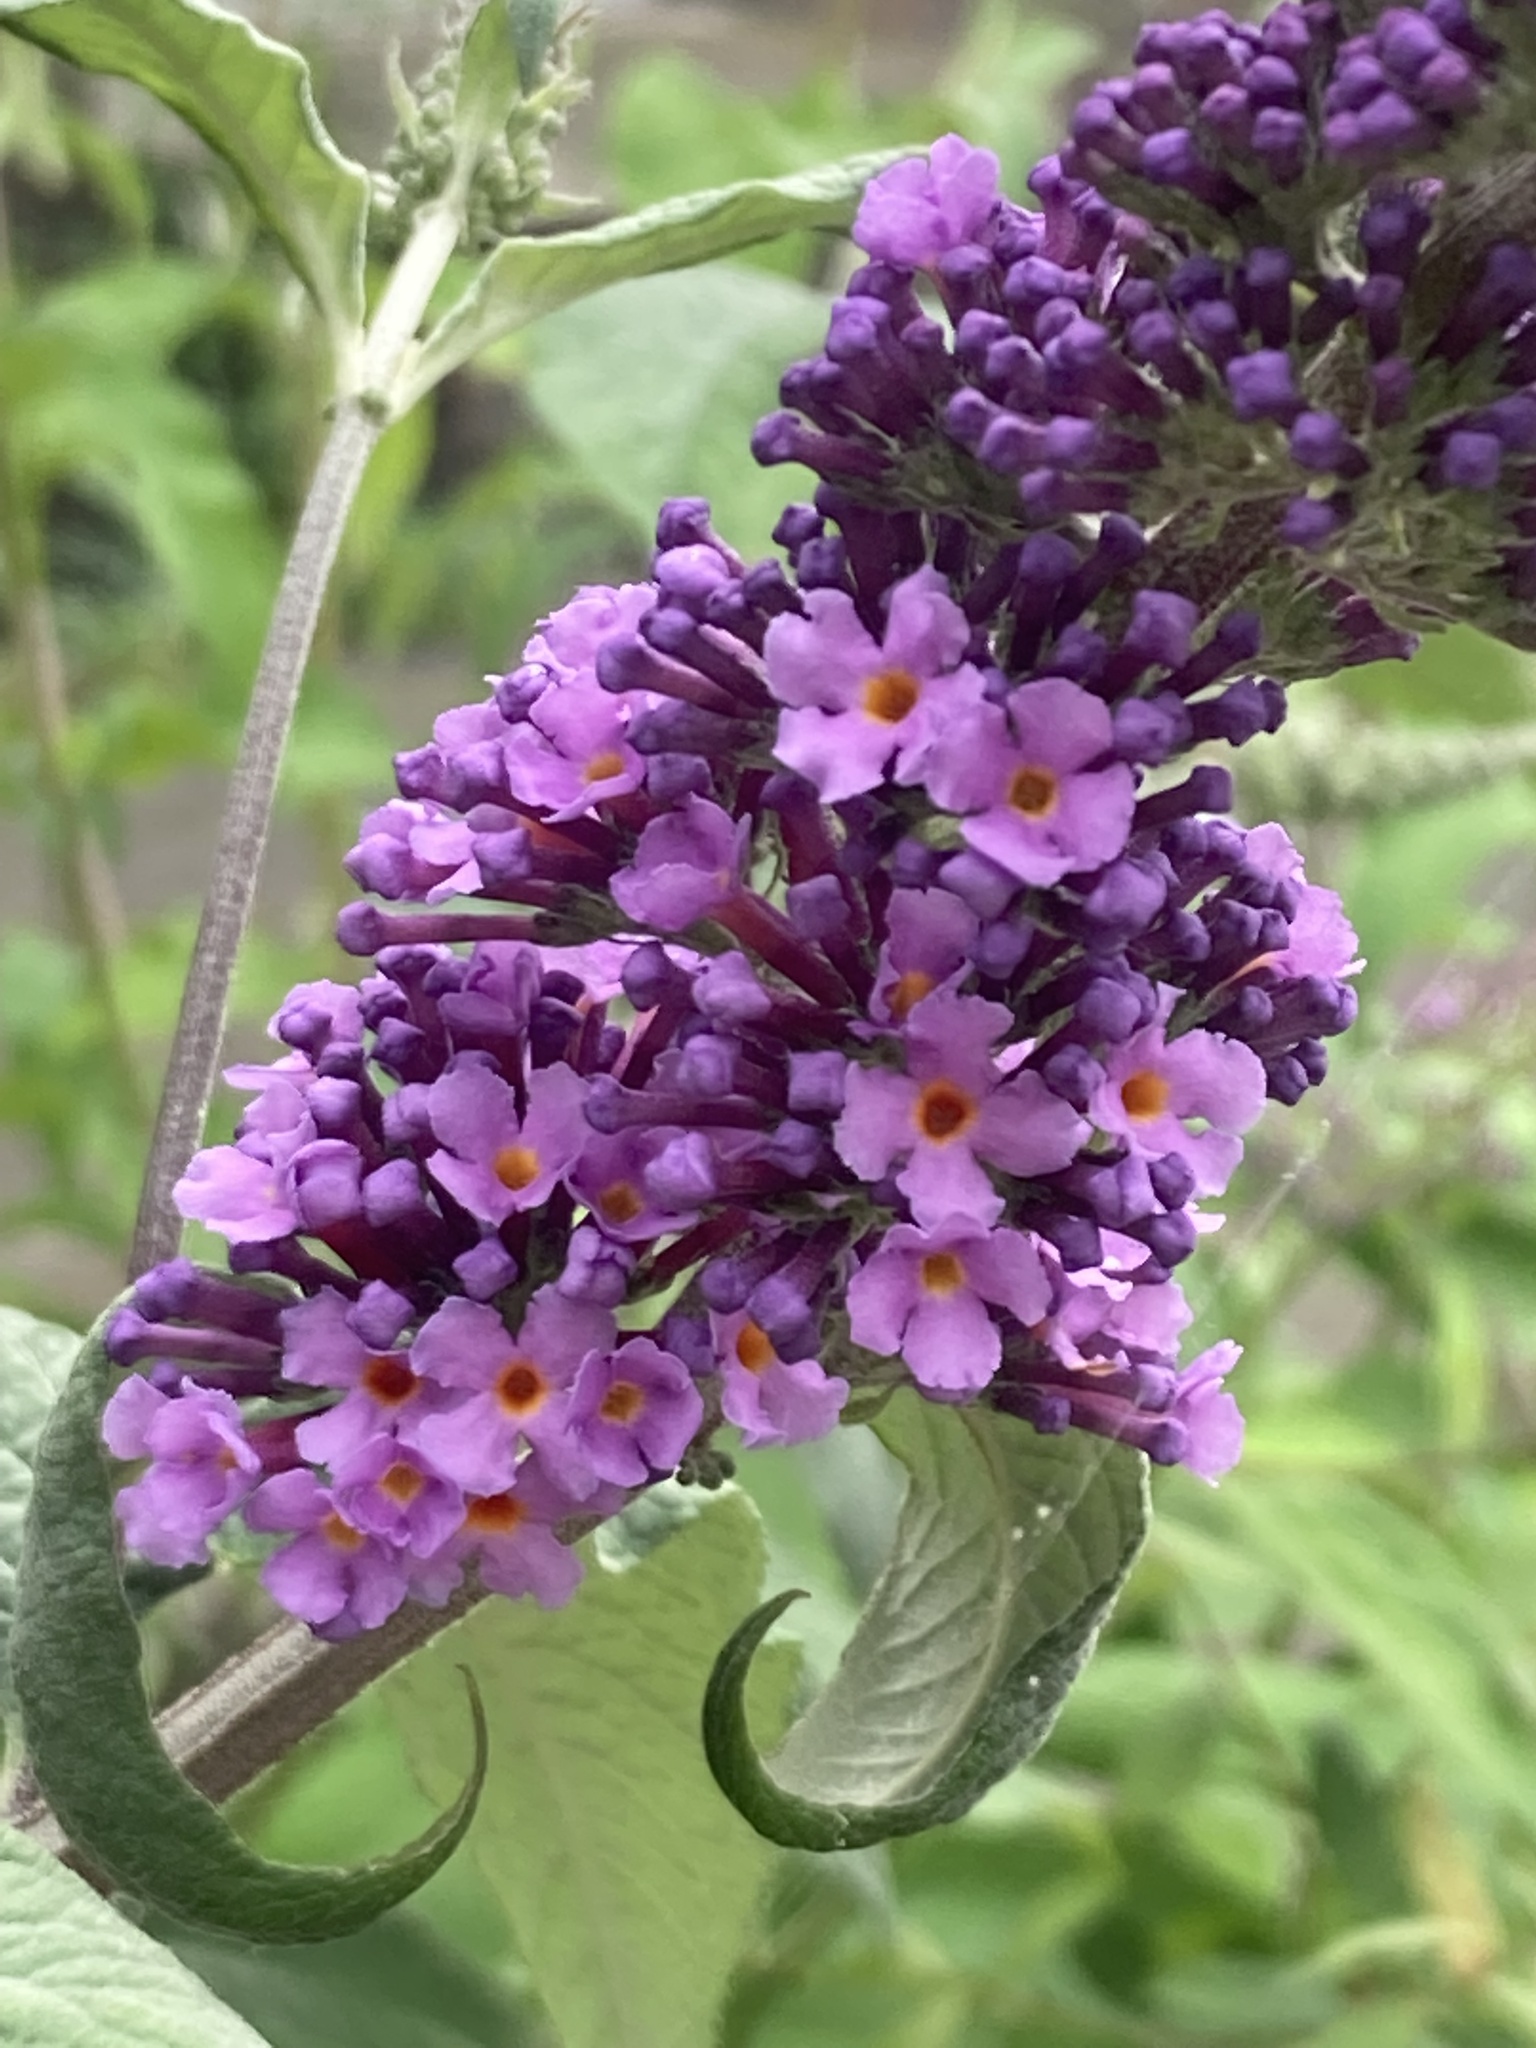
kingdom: Plantae
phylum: Tracheophyta
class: Magnoliopsida
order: Lamiales
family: Scrophulariaceae
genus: Buddleja
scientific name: Buddleja davidii
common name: Butterfly-bush
